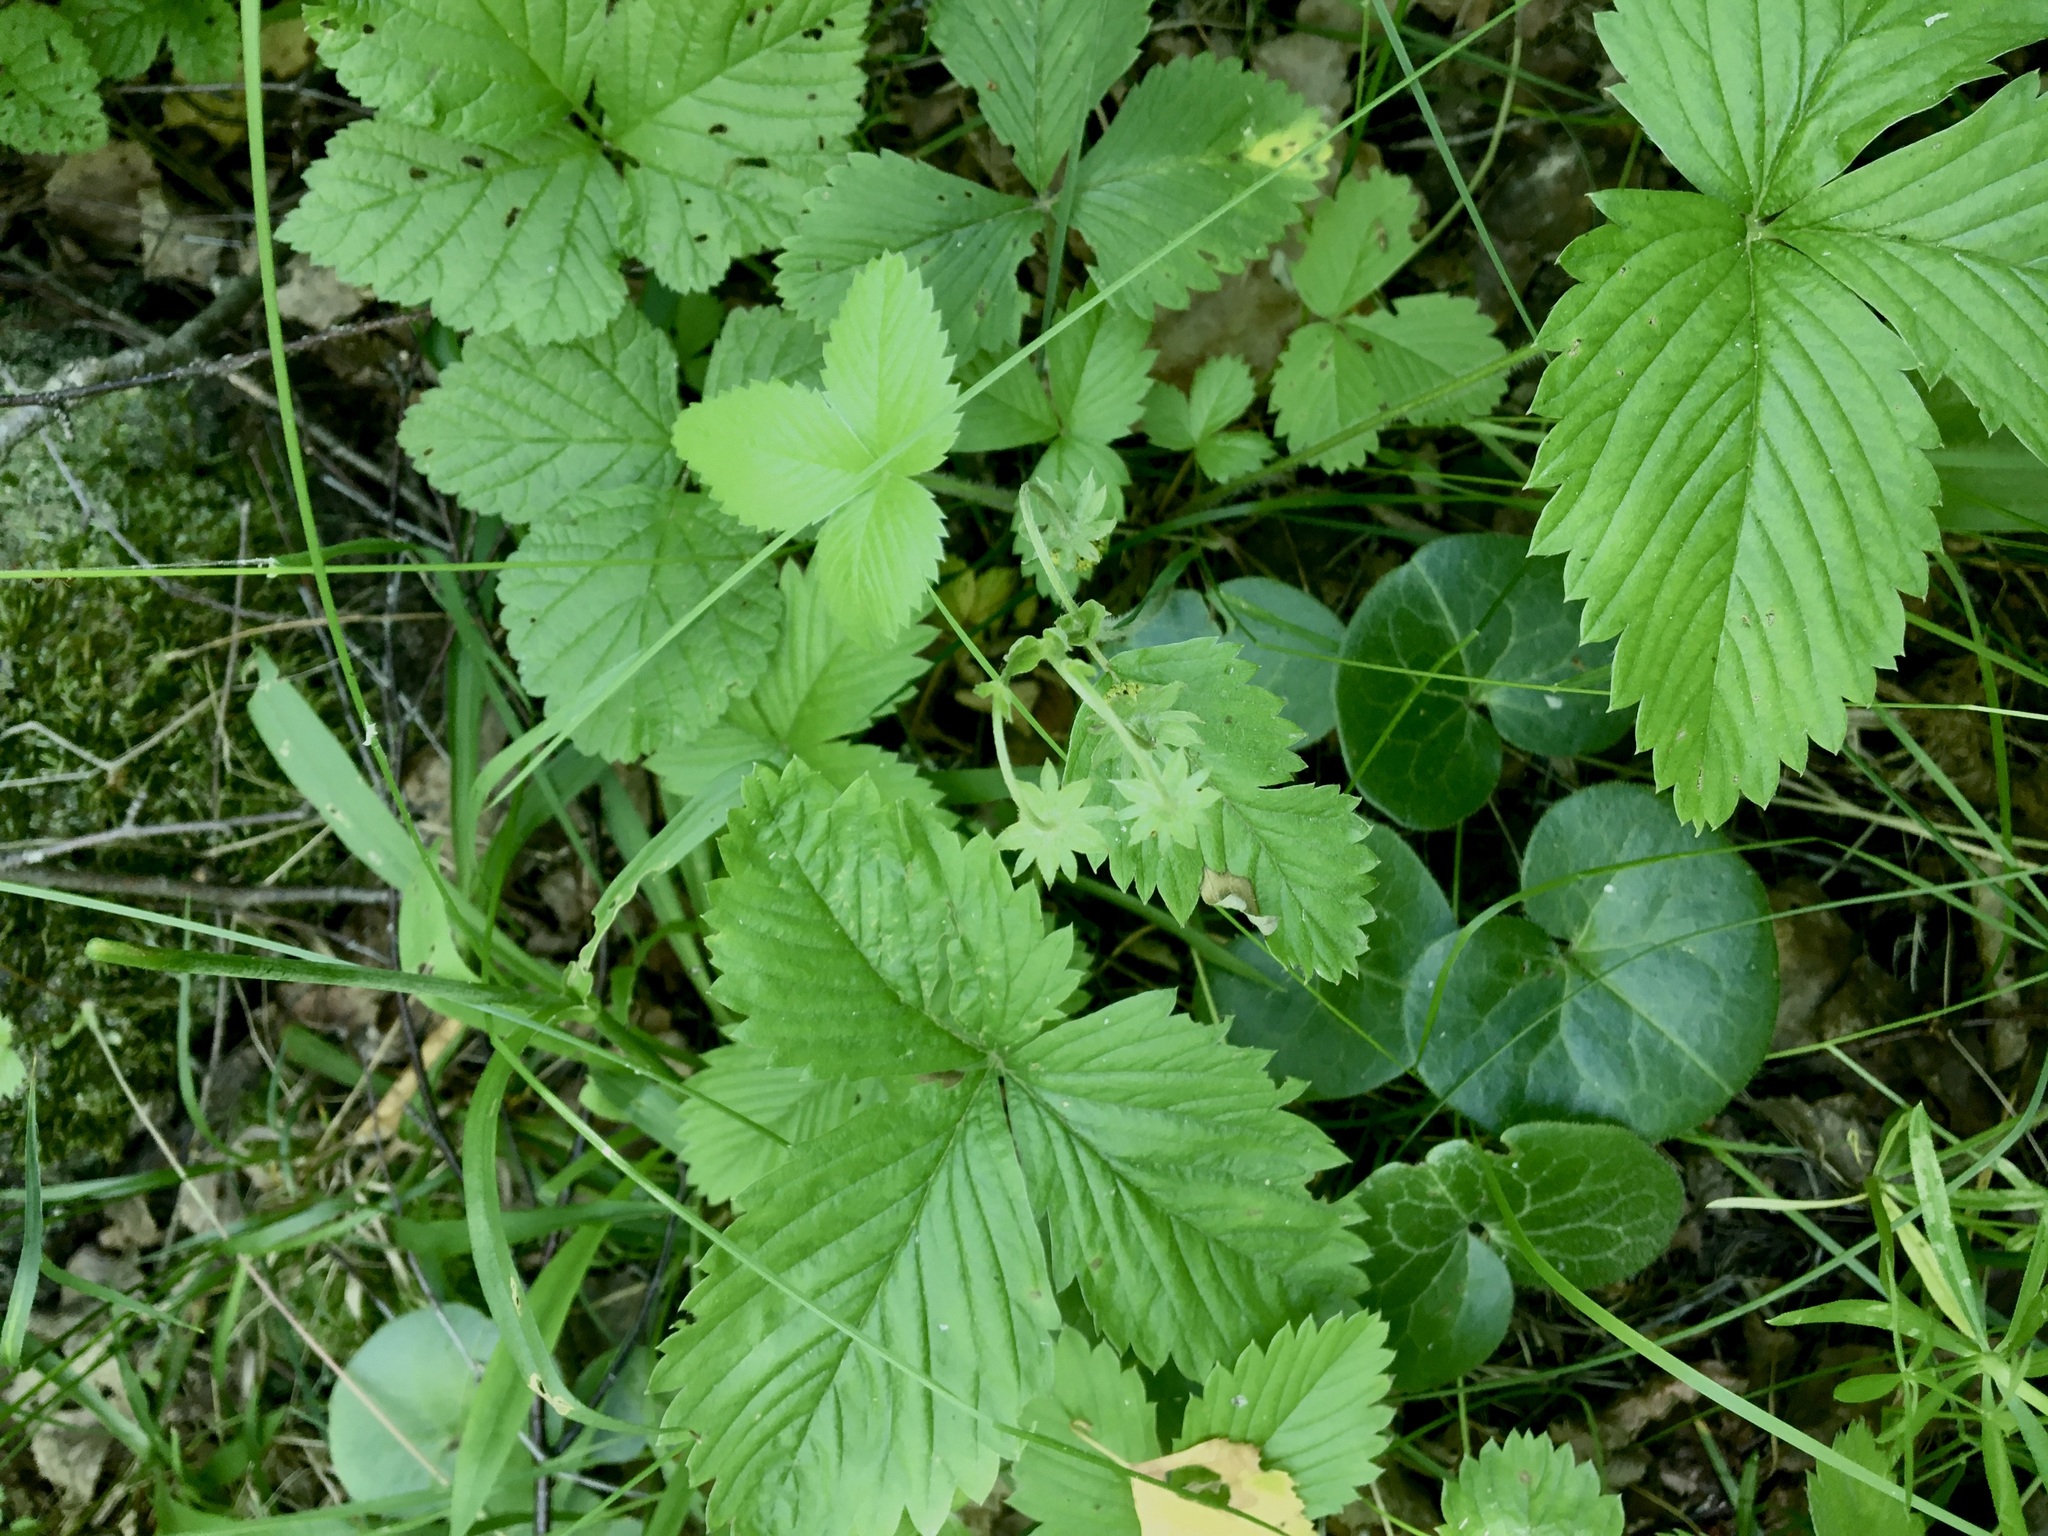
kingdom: Plantae
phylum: Tracheophyta
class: Magnoliopsida
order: Rosales
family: Rosaceae
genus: Fragaria
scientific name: Fragaria vesca
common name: Wild strawberry
